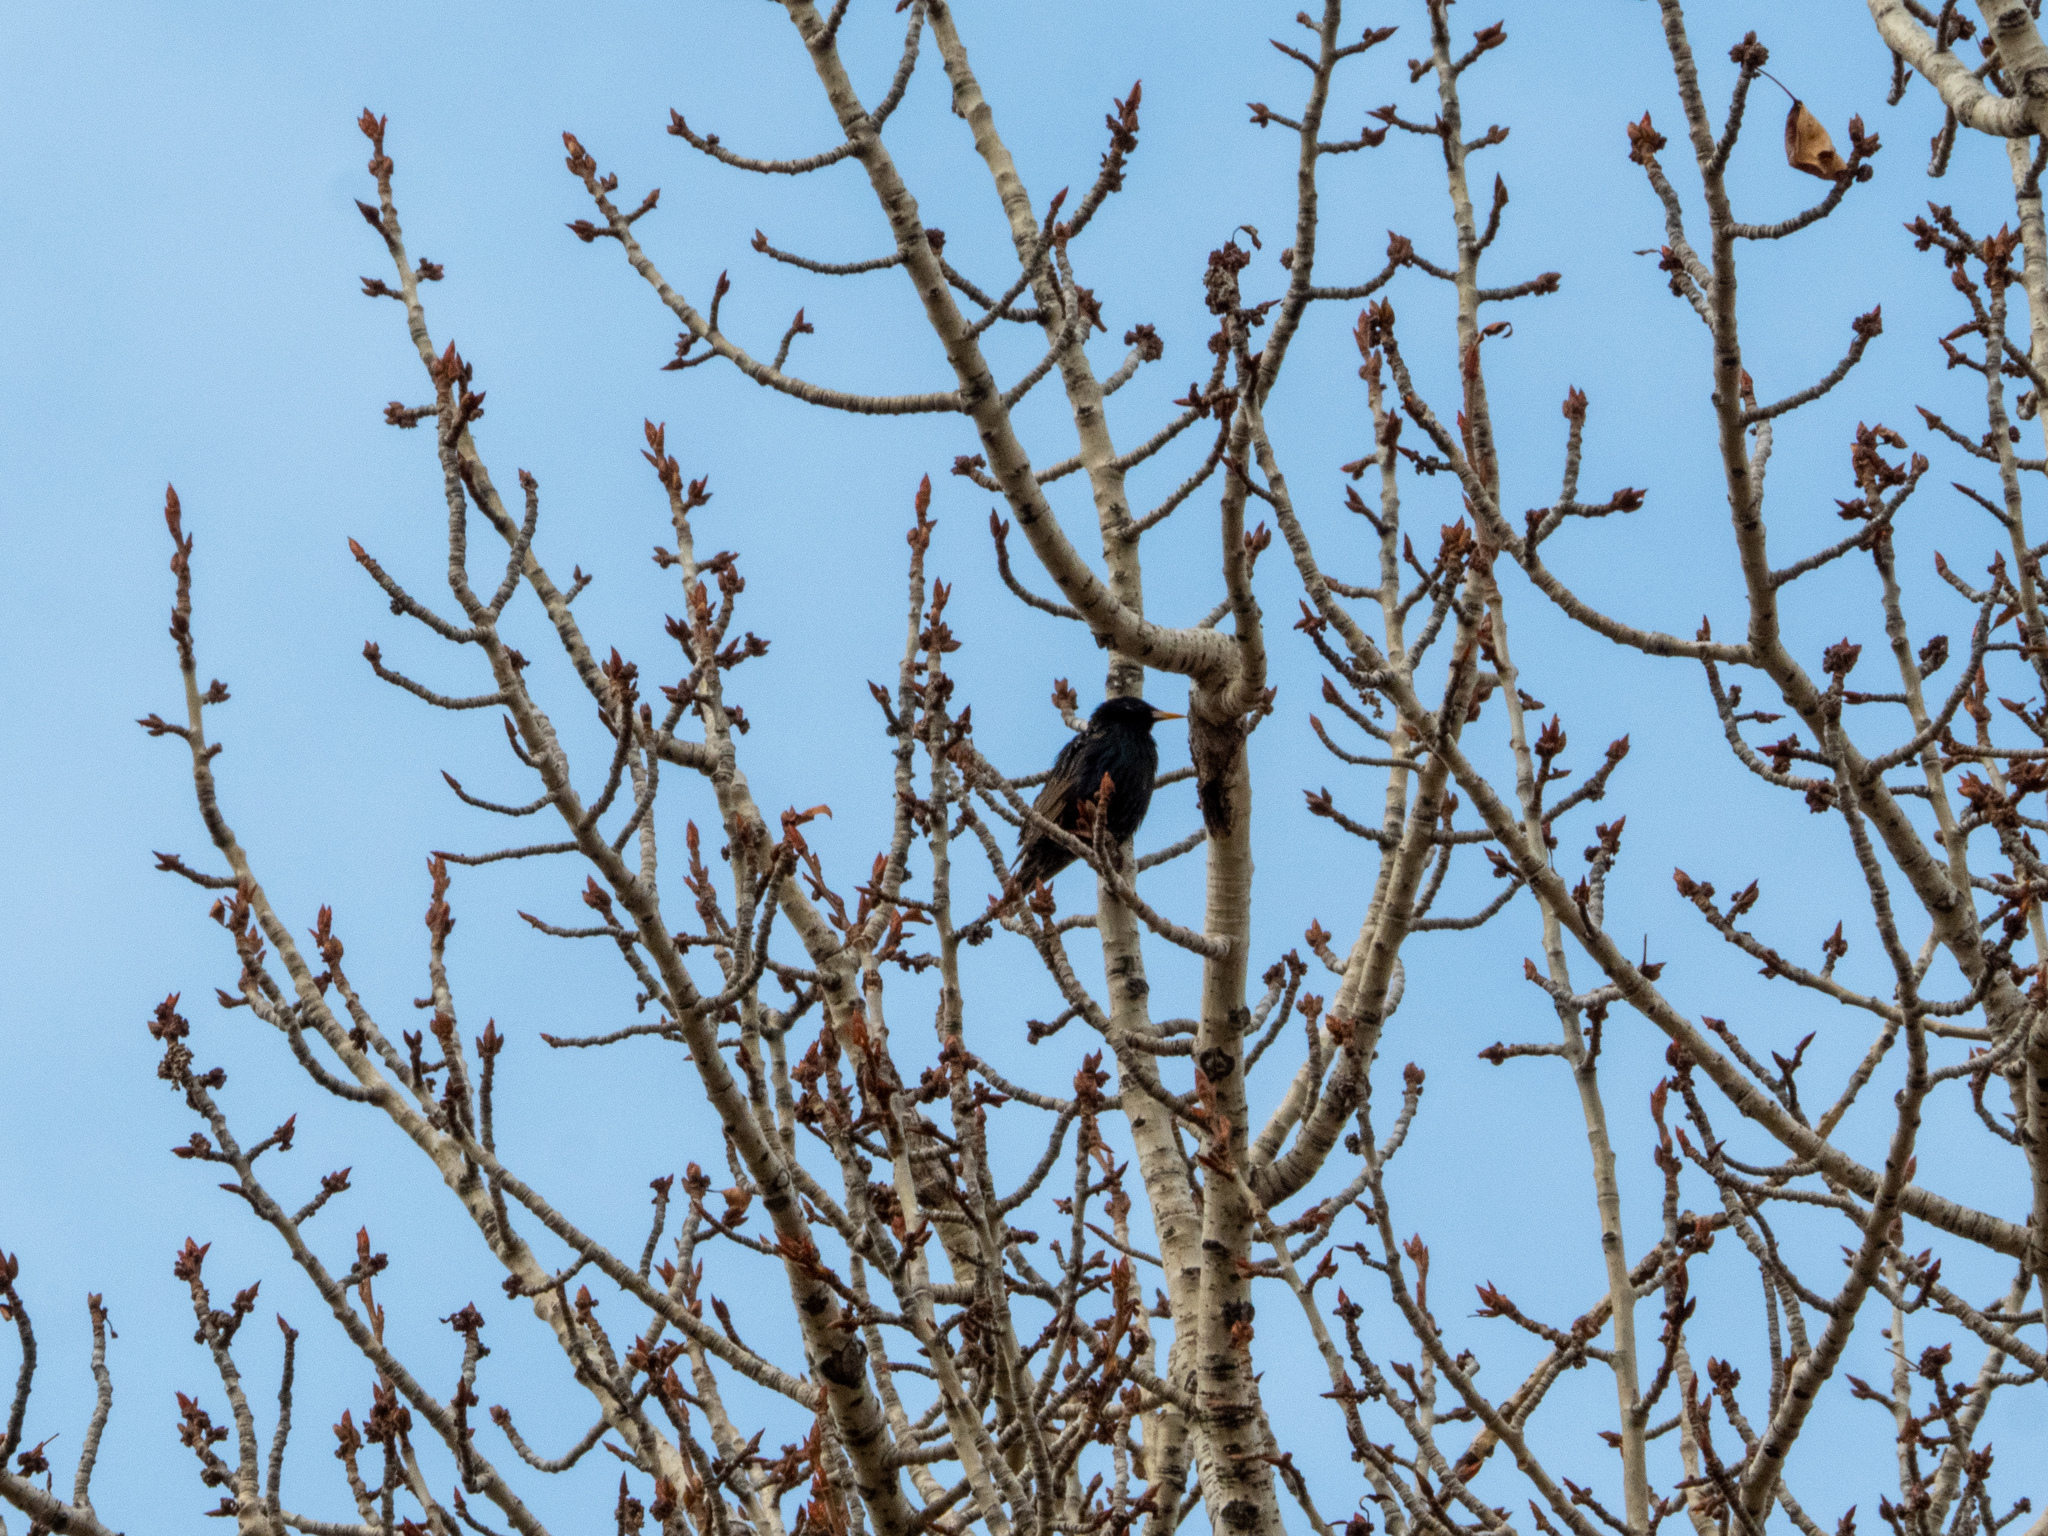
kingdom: Animalia
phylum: Chordata
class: Aves
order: Passeriformes
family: Sturnidae
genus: Sturnus
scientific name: Sturnus vulgaris
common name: Common starling
